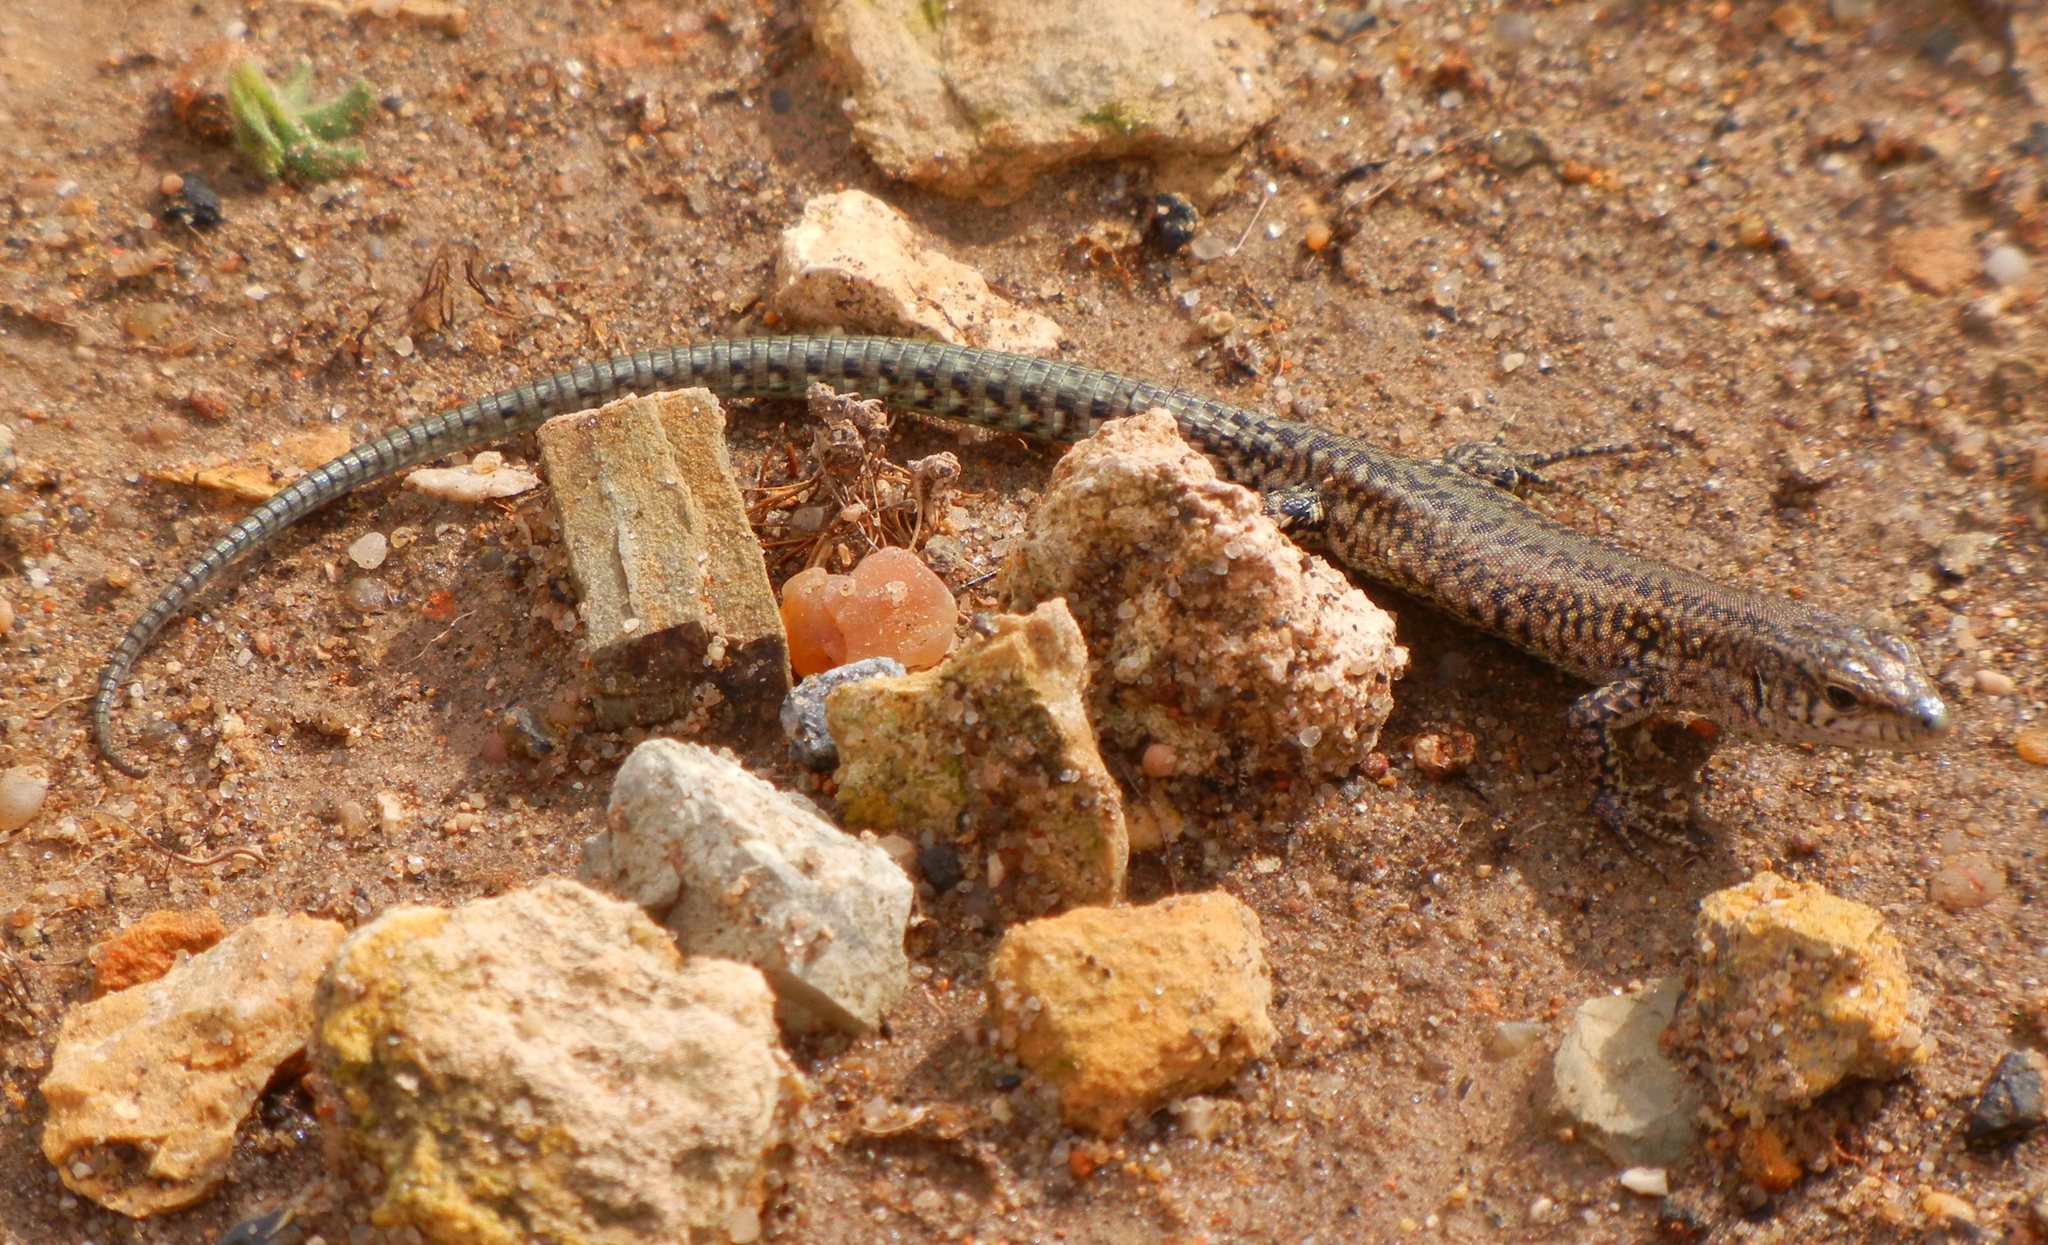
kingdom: Animalia
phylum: Chordata
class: Squamata
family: Lacertidae
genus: Podarcis
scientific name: Podarcis virescens
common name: Geniez’s wall lizard
